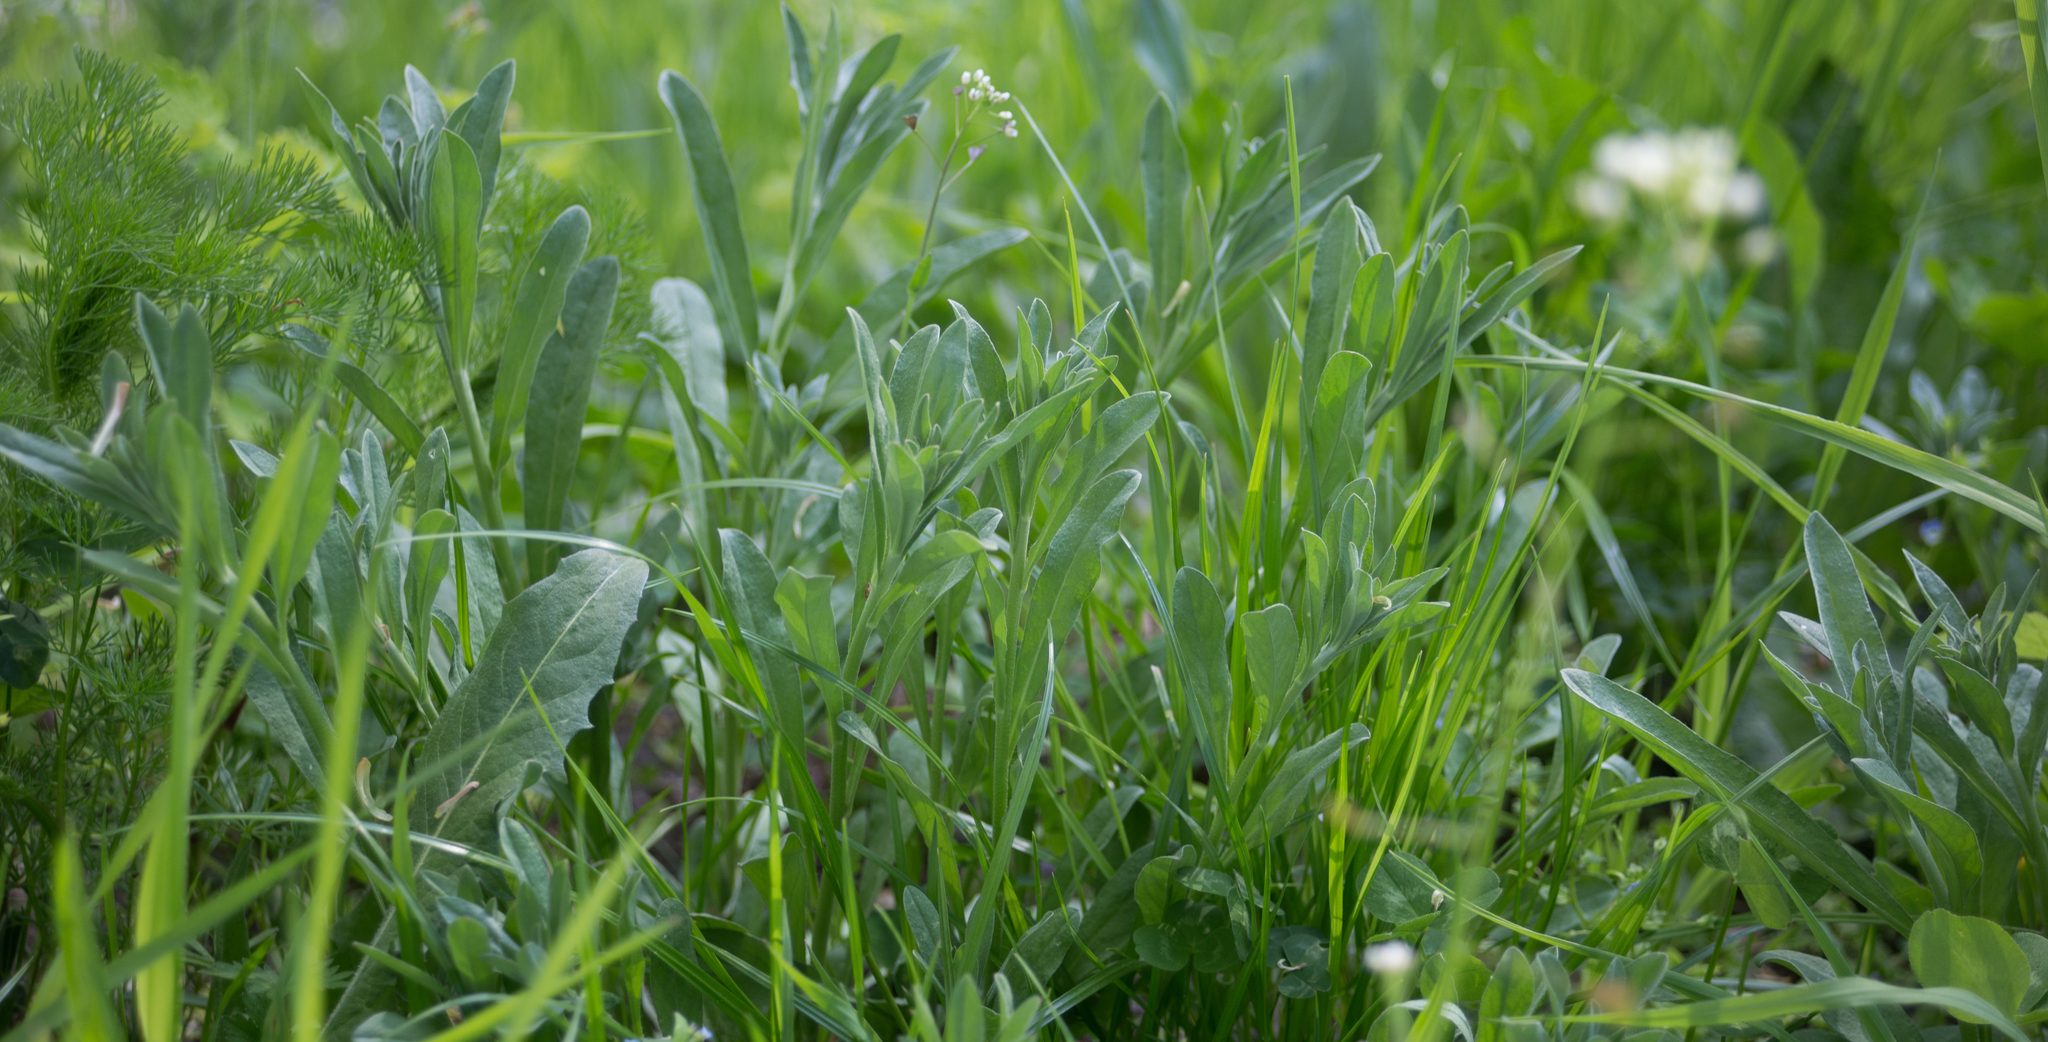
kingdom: Plantae
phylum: Tracheophyta
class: Magnoliopsida
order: Brassicales
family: Brassicaceae
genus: Berteroa
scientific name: Berteroa incana
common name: Hoary alison
